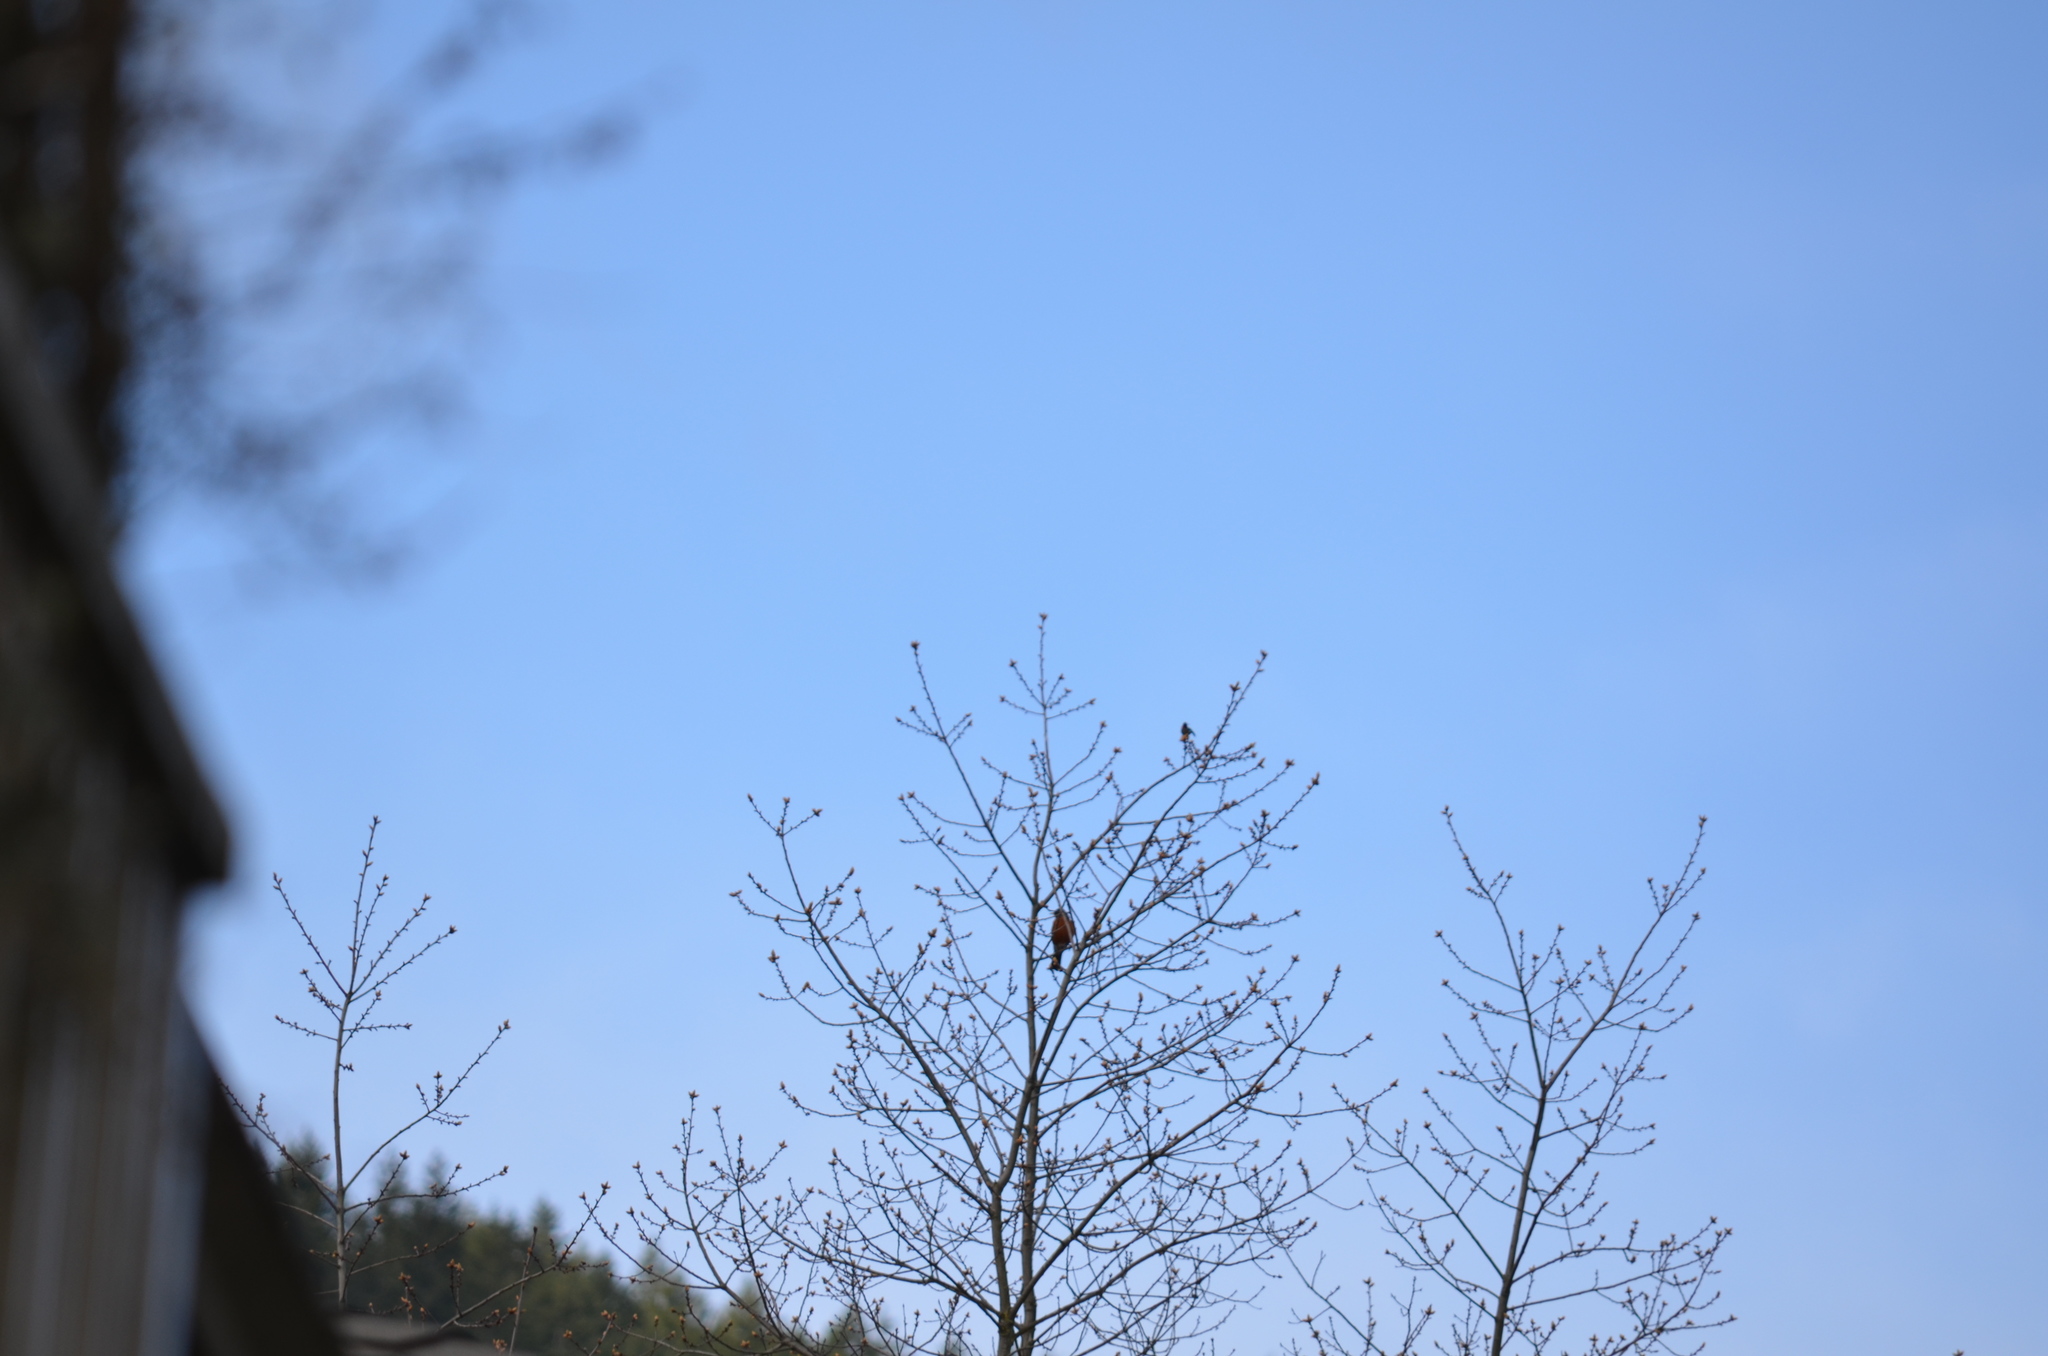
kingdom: Animalia
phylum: Chordata
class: Aves
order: Passeriformes
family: Turdidae
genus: Turdus
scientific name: Turdus migratorius
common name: American robin
